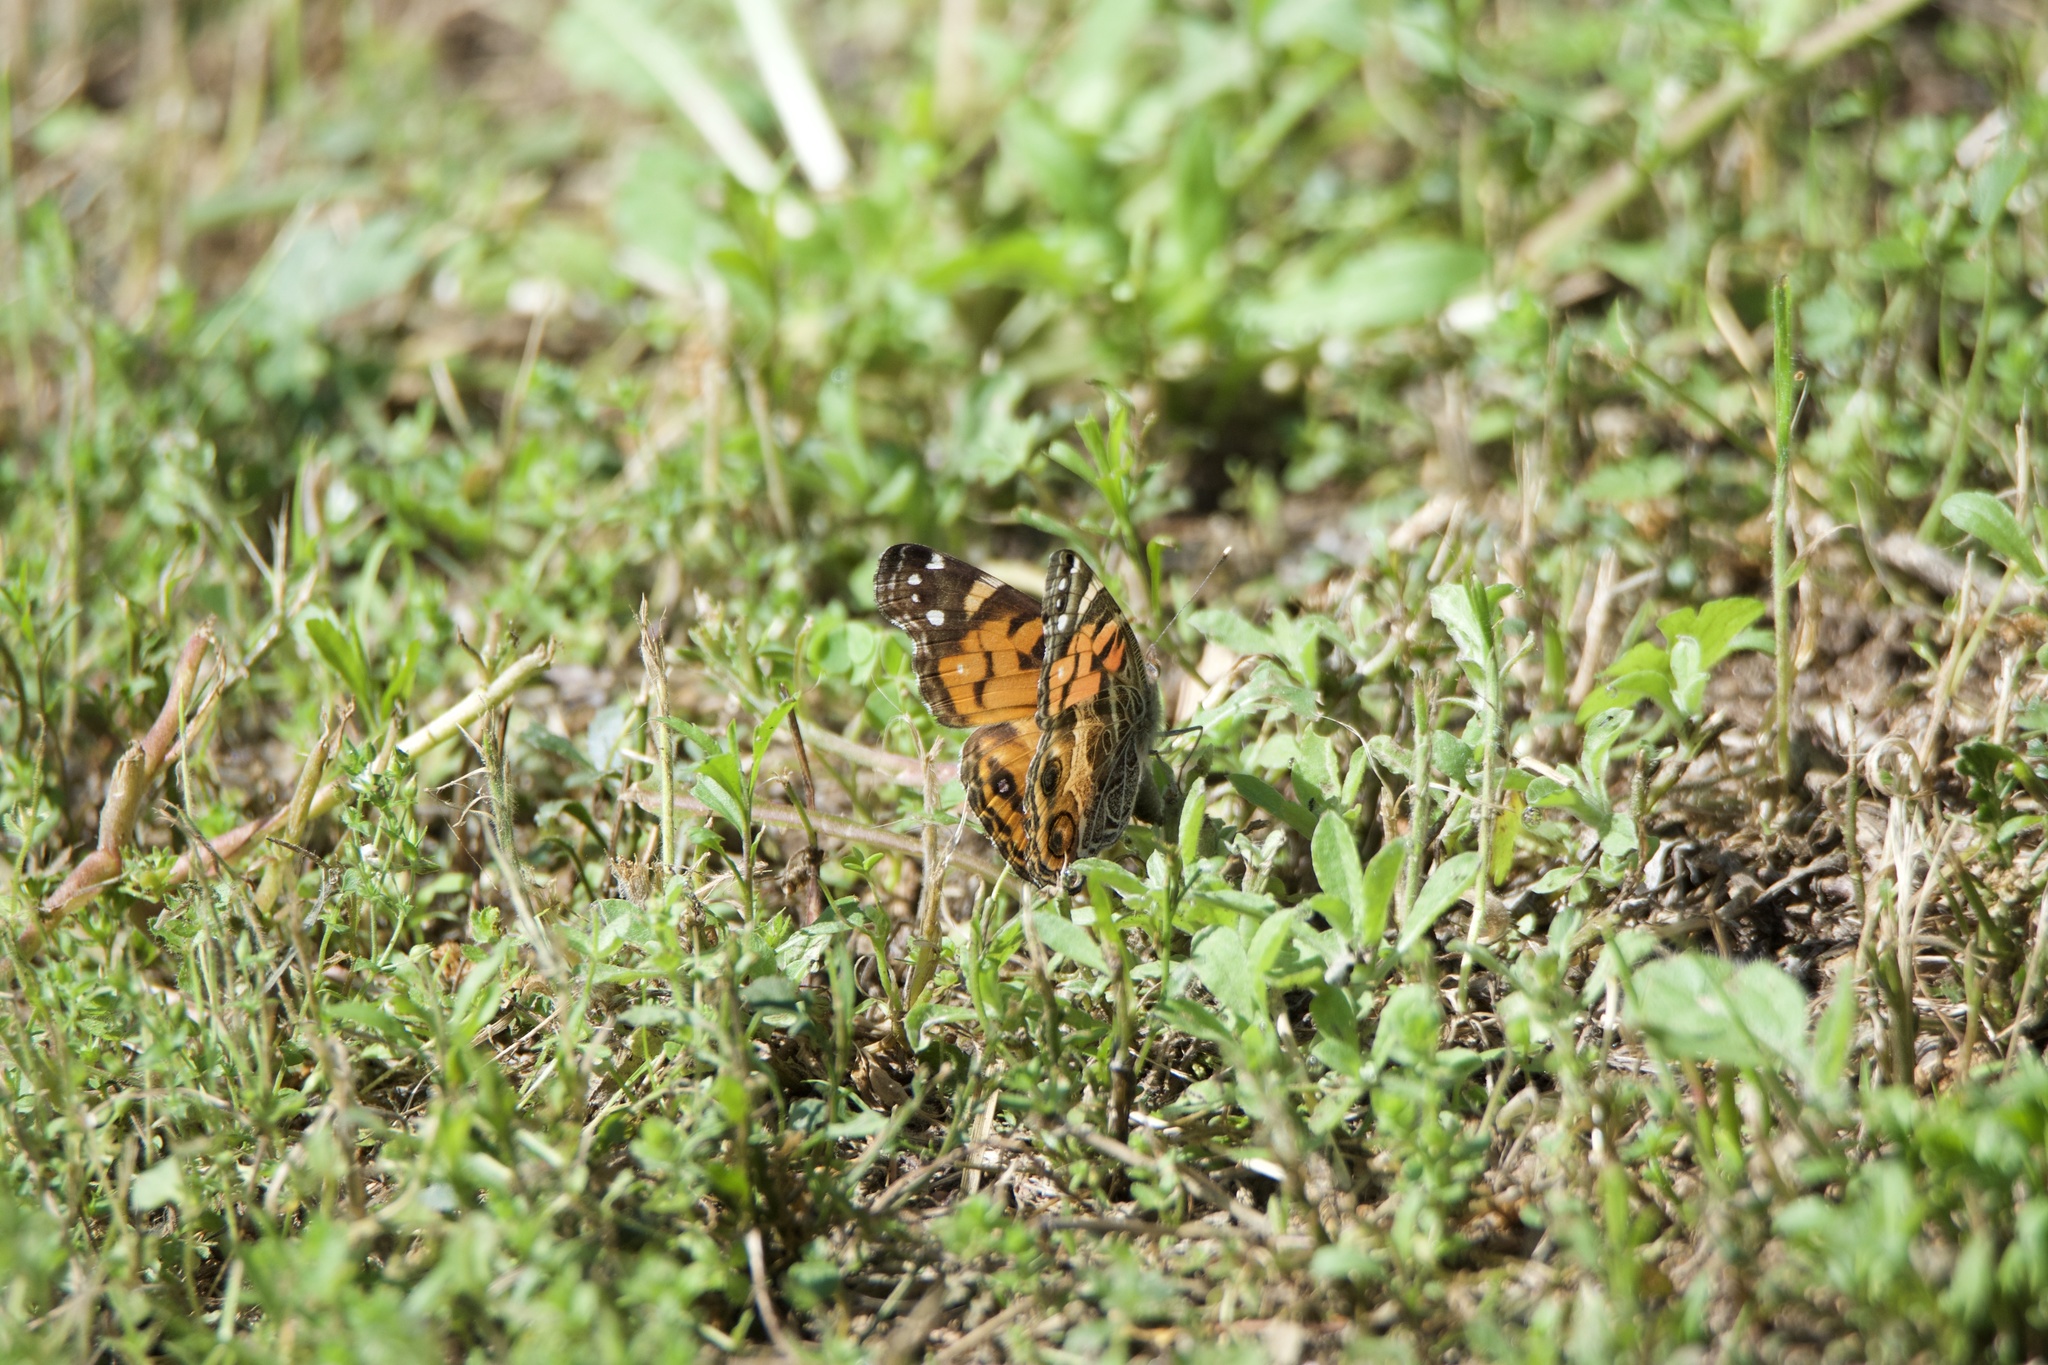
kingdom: Animalia
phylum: Arthropoda
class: Insecta
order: Lepidoptera
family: Nymphalidae
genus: Vanessa
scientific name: Vanessa virginiensis
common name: American lady
